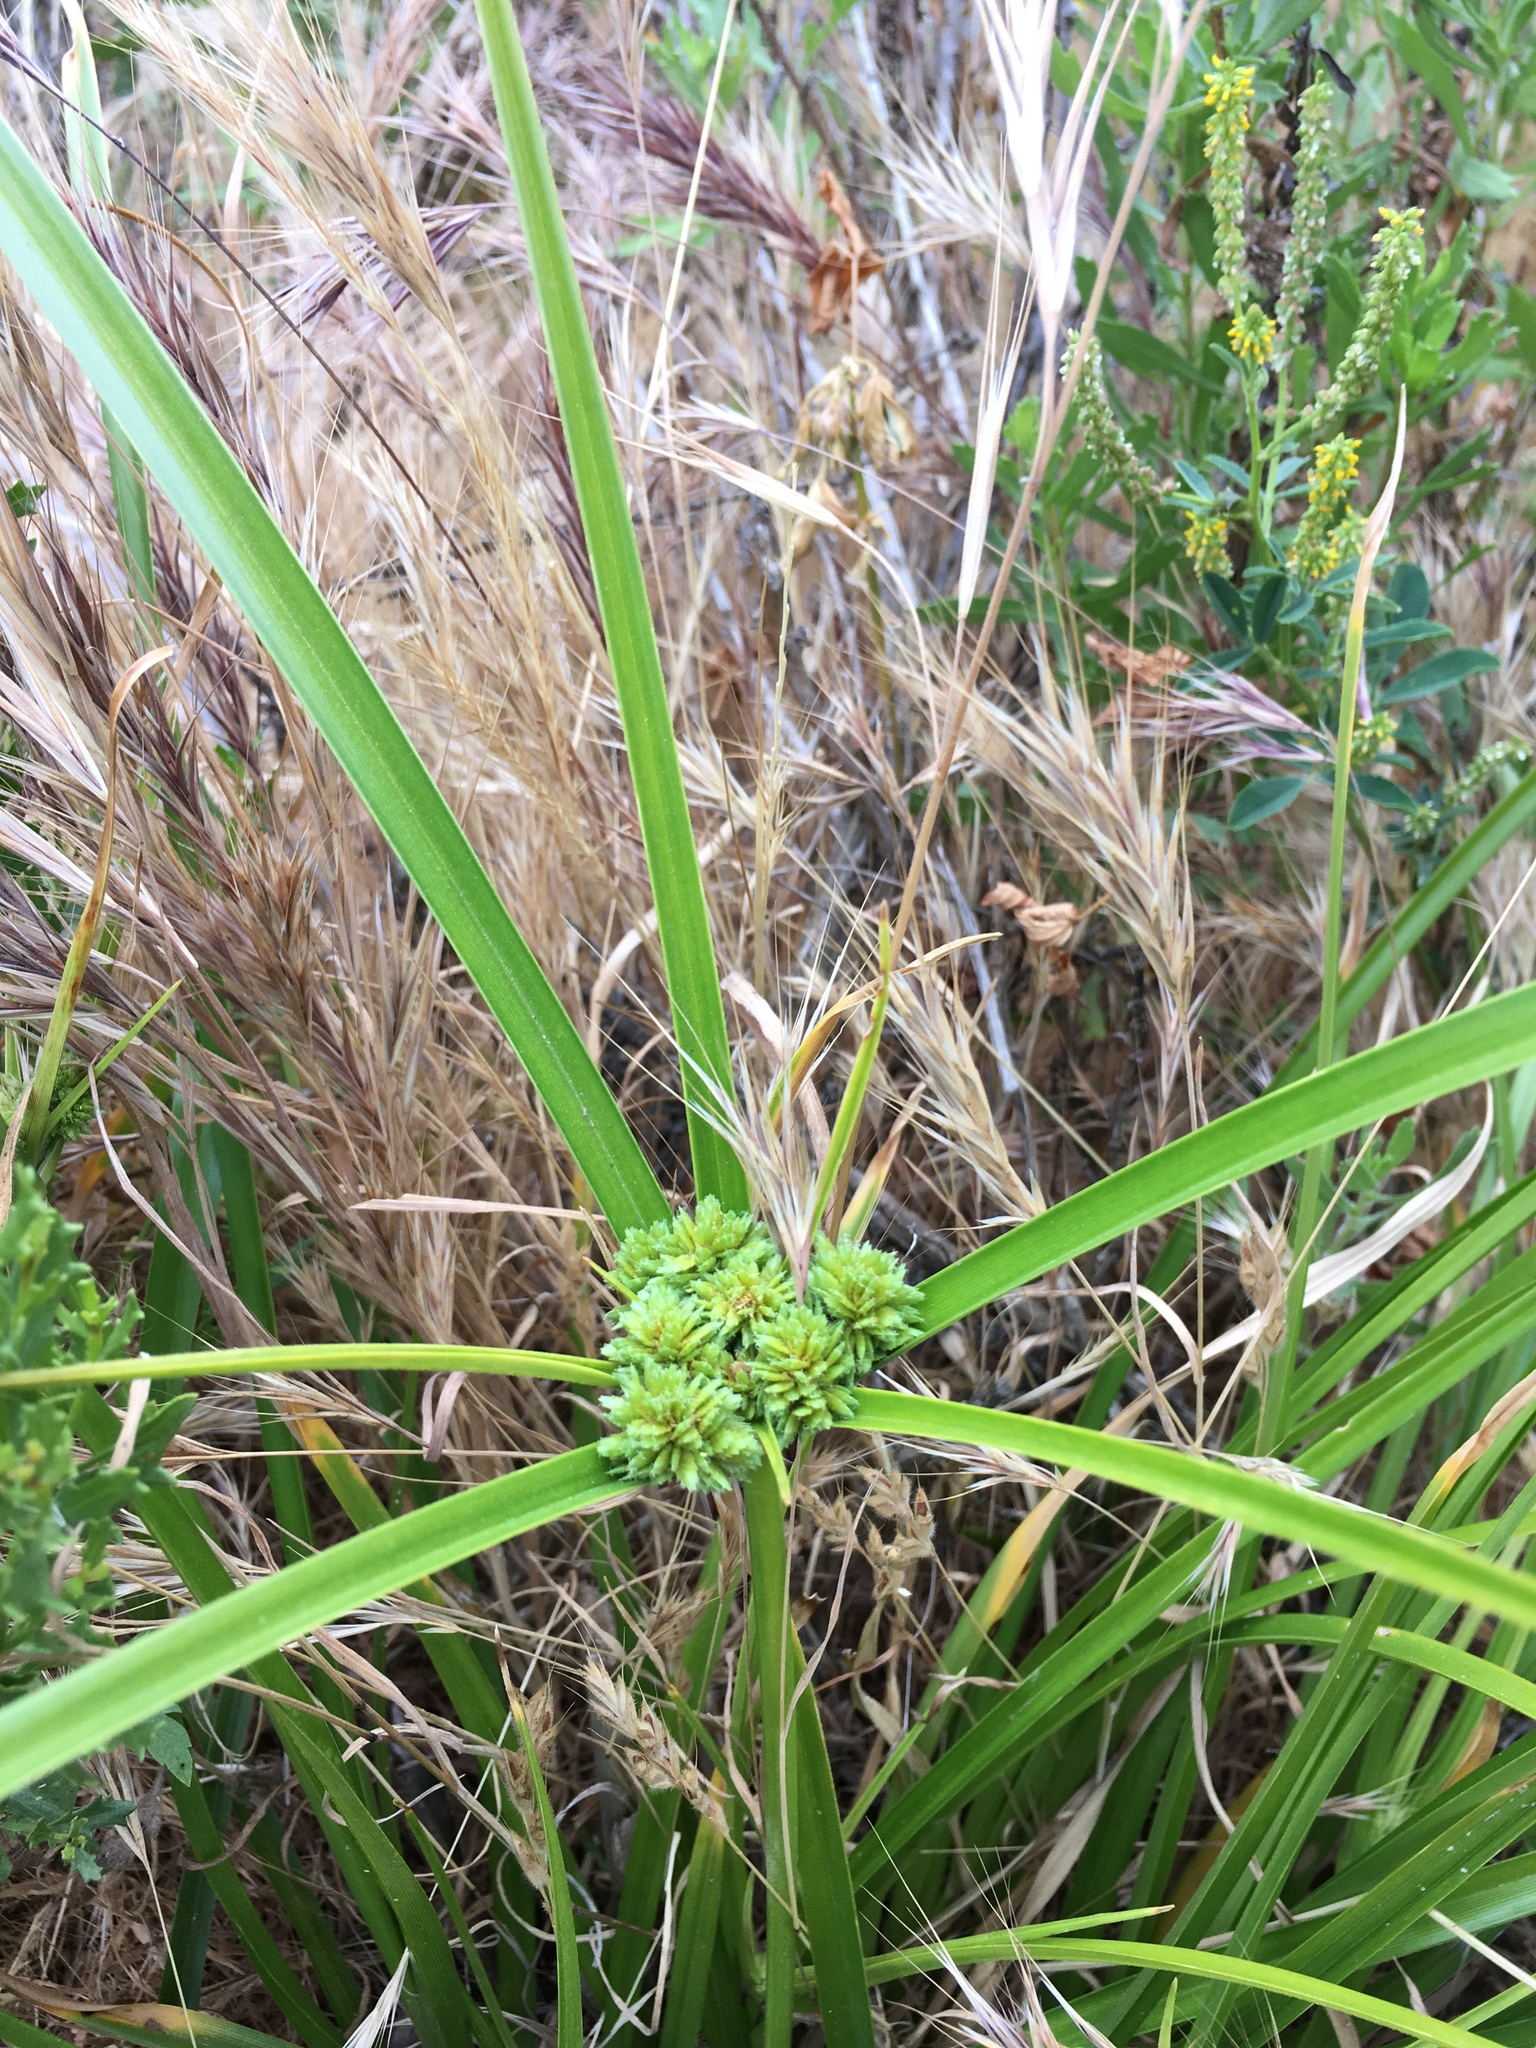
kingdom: Plantae
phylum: Tracheophyta
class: Liliopsida
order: Poales
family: Cyperaceae
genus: Cyperus
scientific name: Cyperus eragrostis
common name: Tall flatsedge
